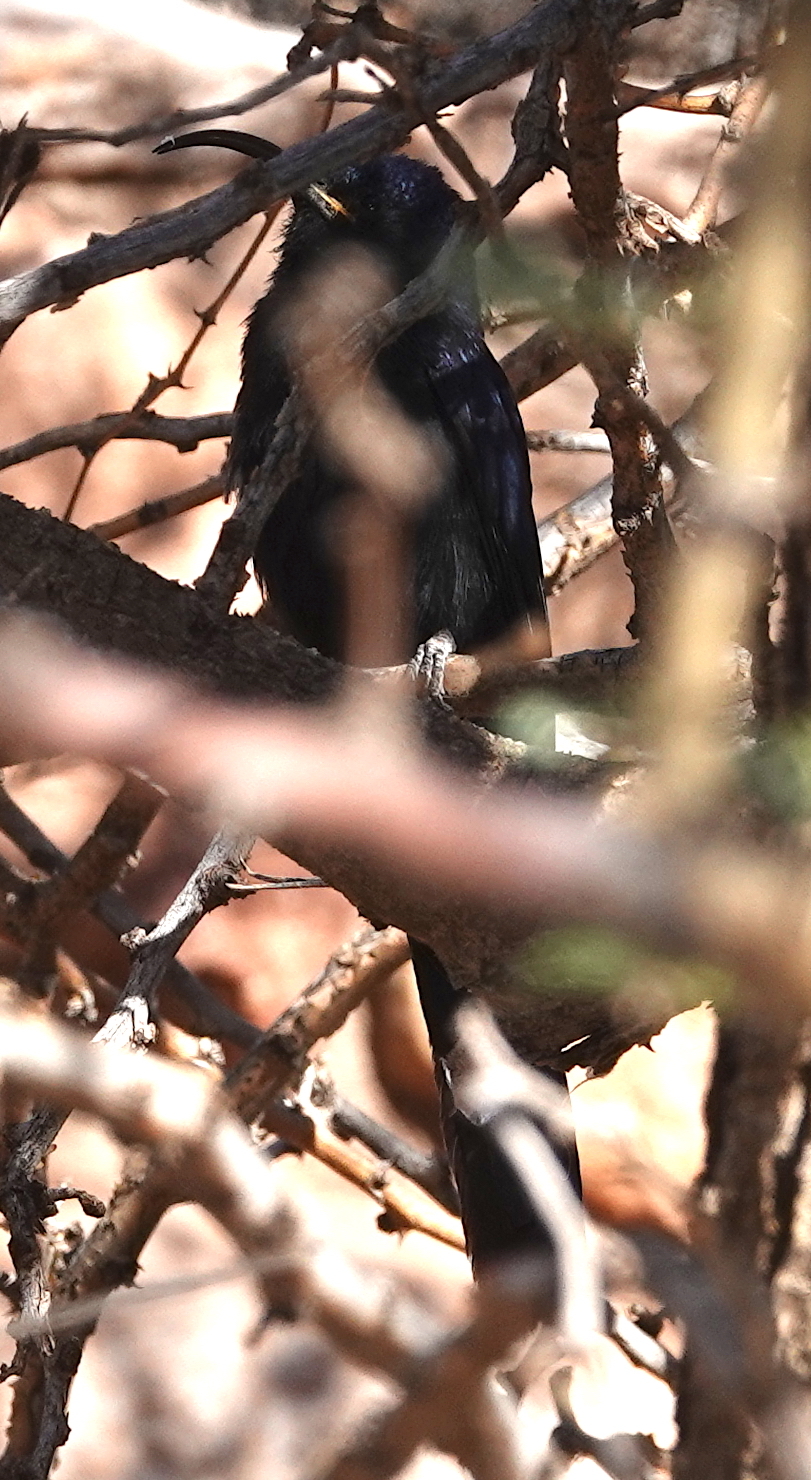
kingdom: Animalia
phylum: Chordata
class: Aves
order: Bucerotiformes
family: Phoeniculidae
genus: Rhinopomastus
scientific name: Rhinopomastus cyanomelas
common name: Common scimitarbill
